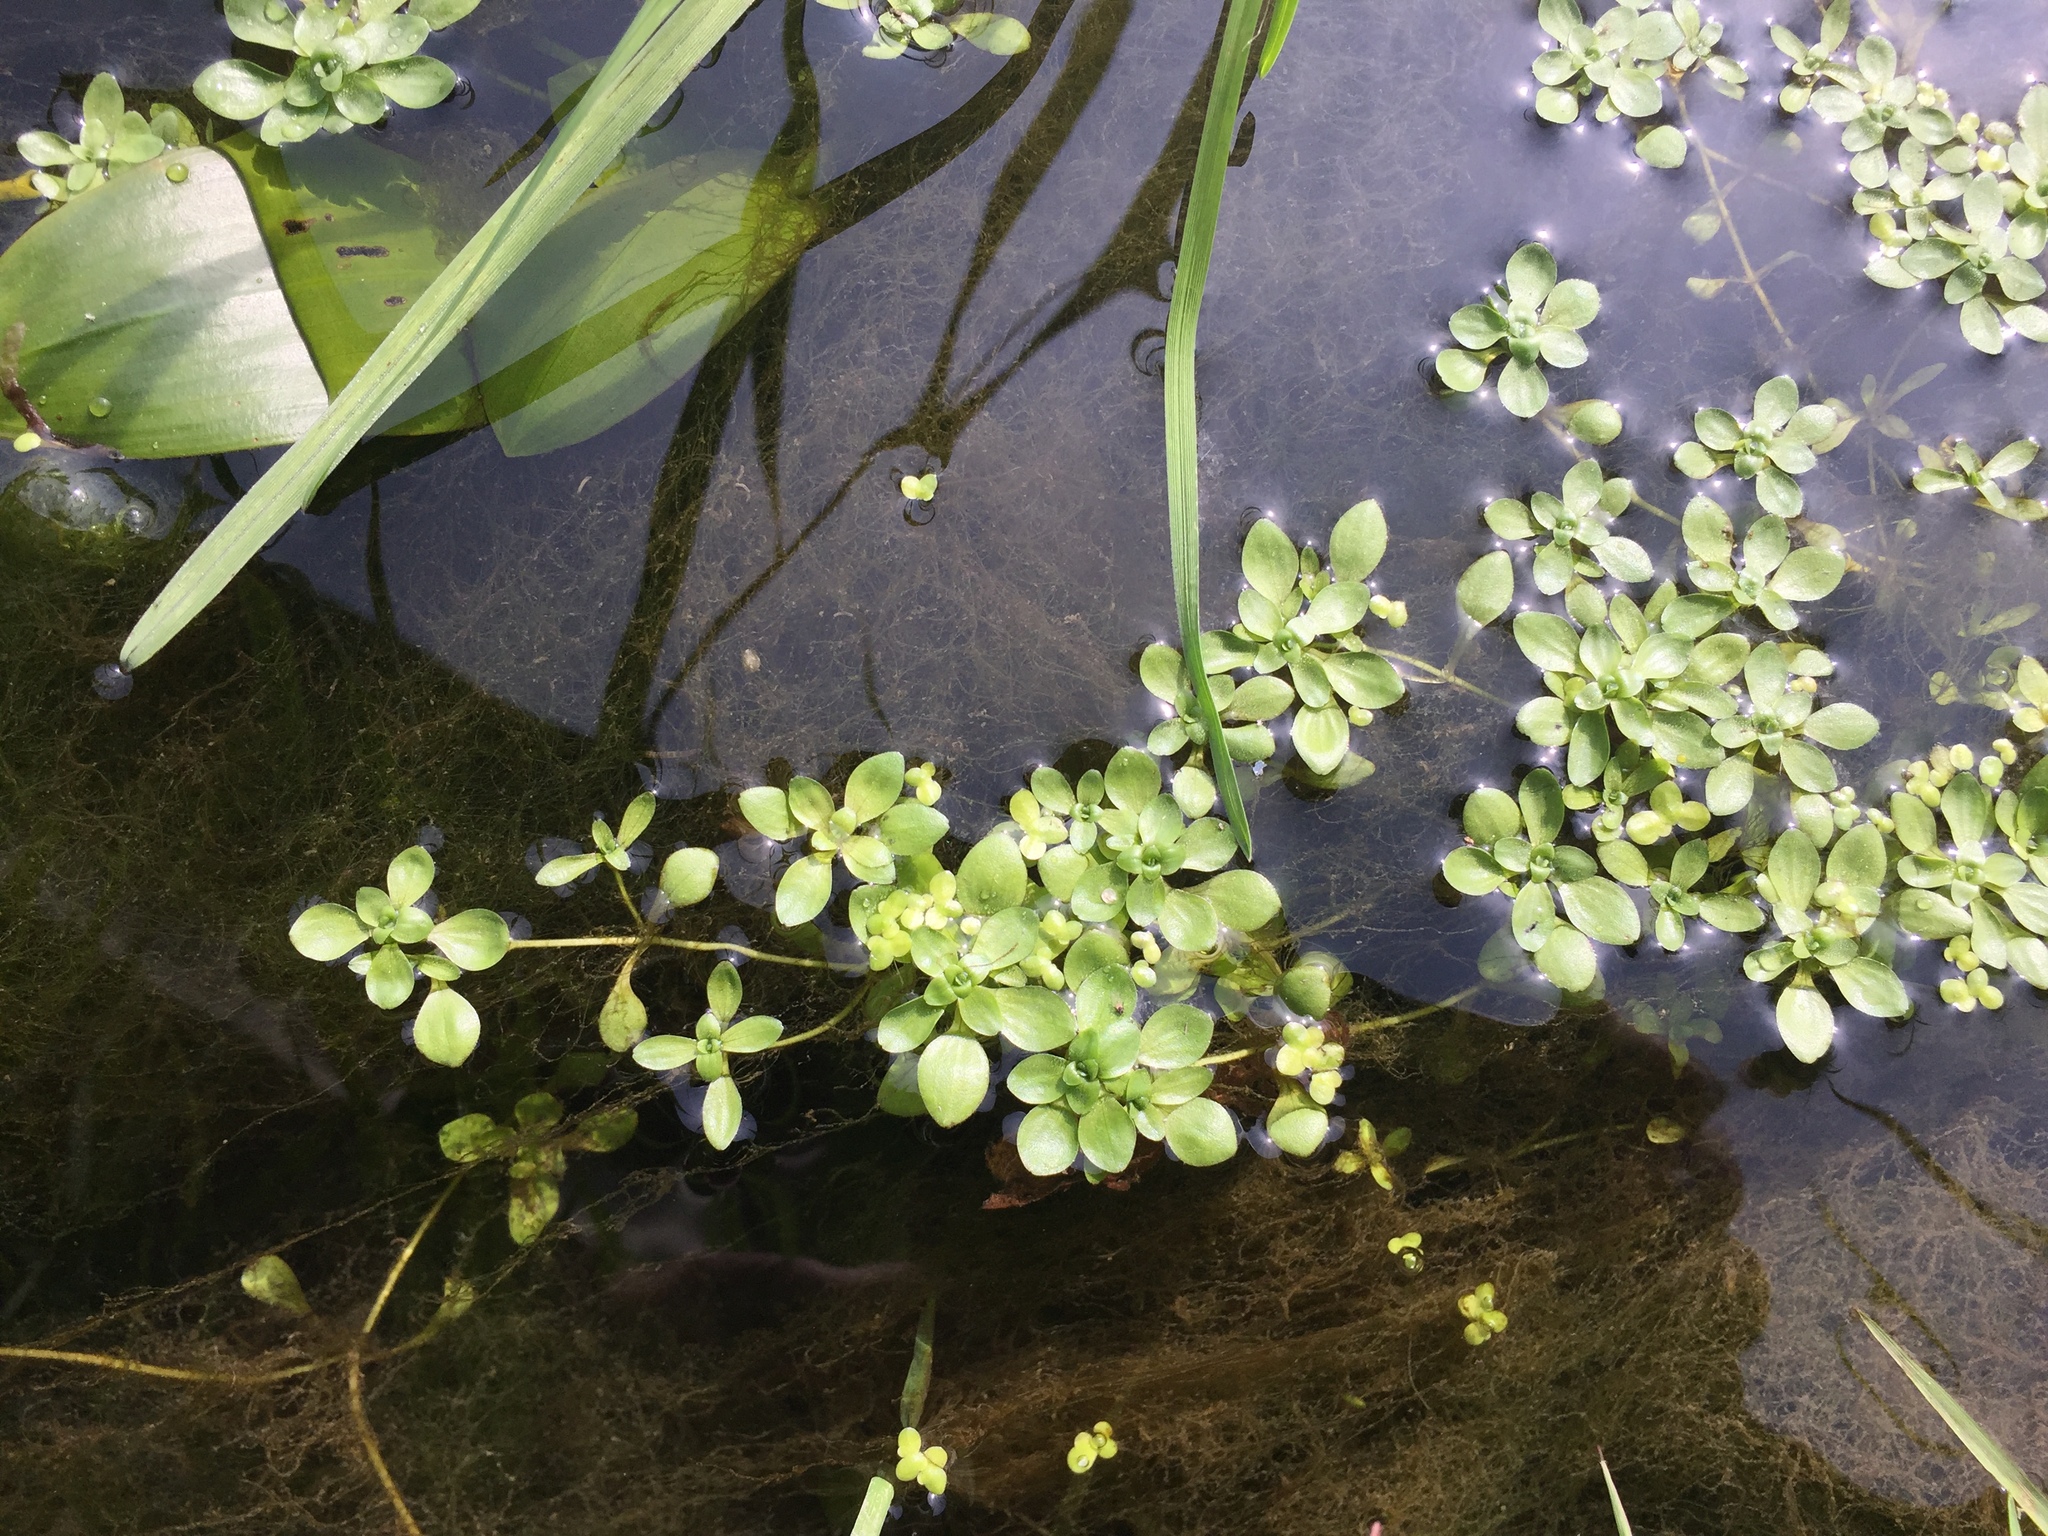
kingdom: Plantae
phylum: Tracheophyta
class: Magnoliopsida
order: Lamiales
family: Plantaginaceae
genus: Callitriche
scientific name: Callitriche stagnalis
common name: Common water-starwort
